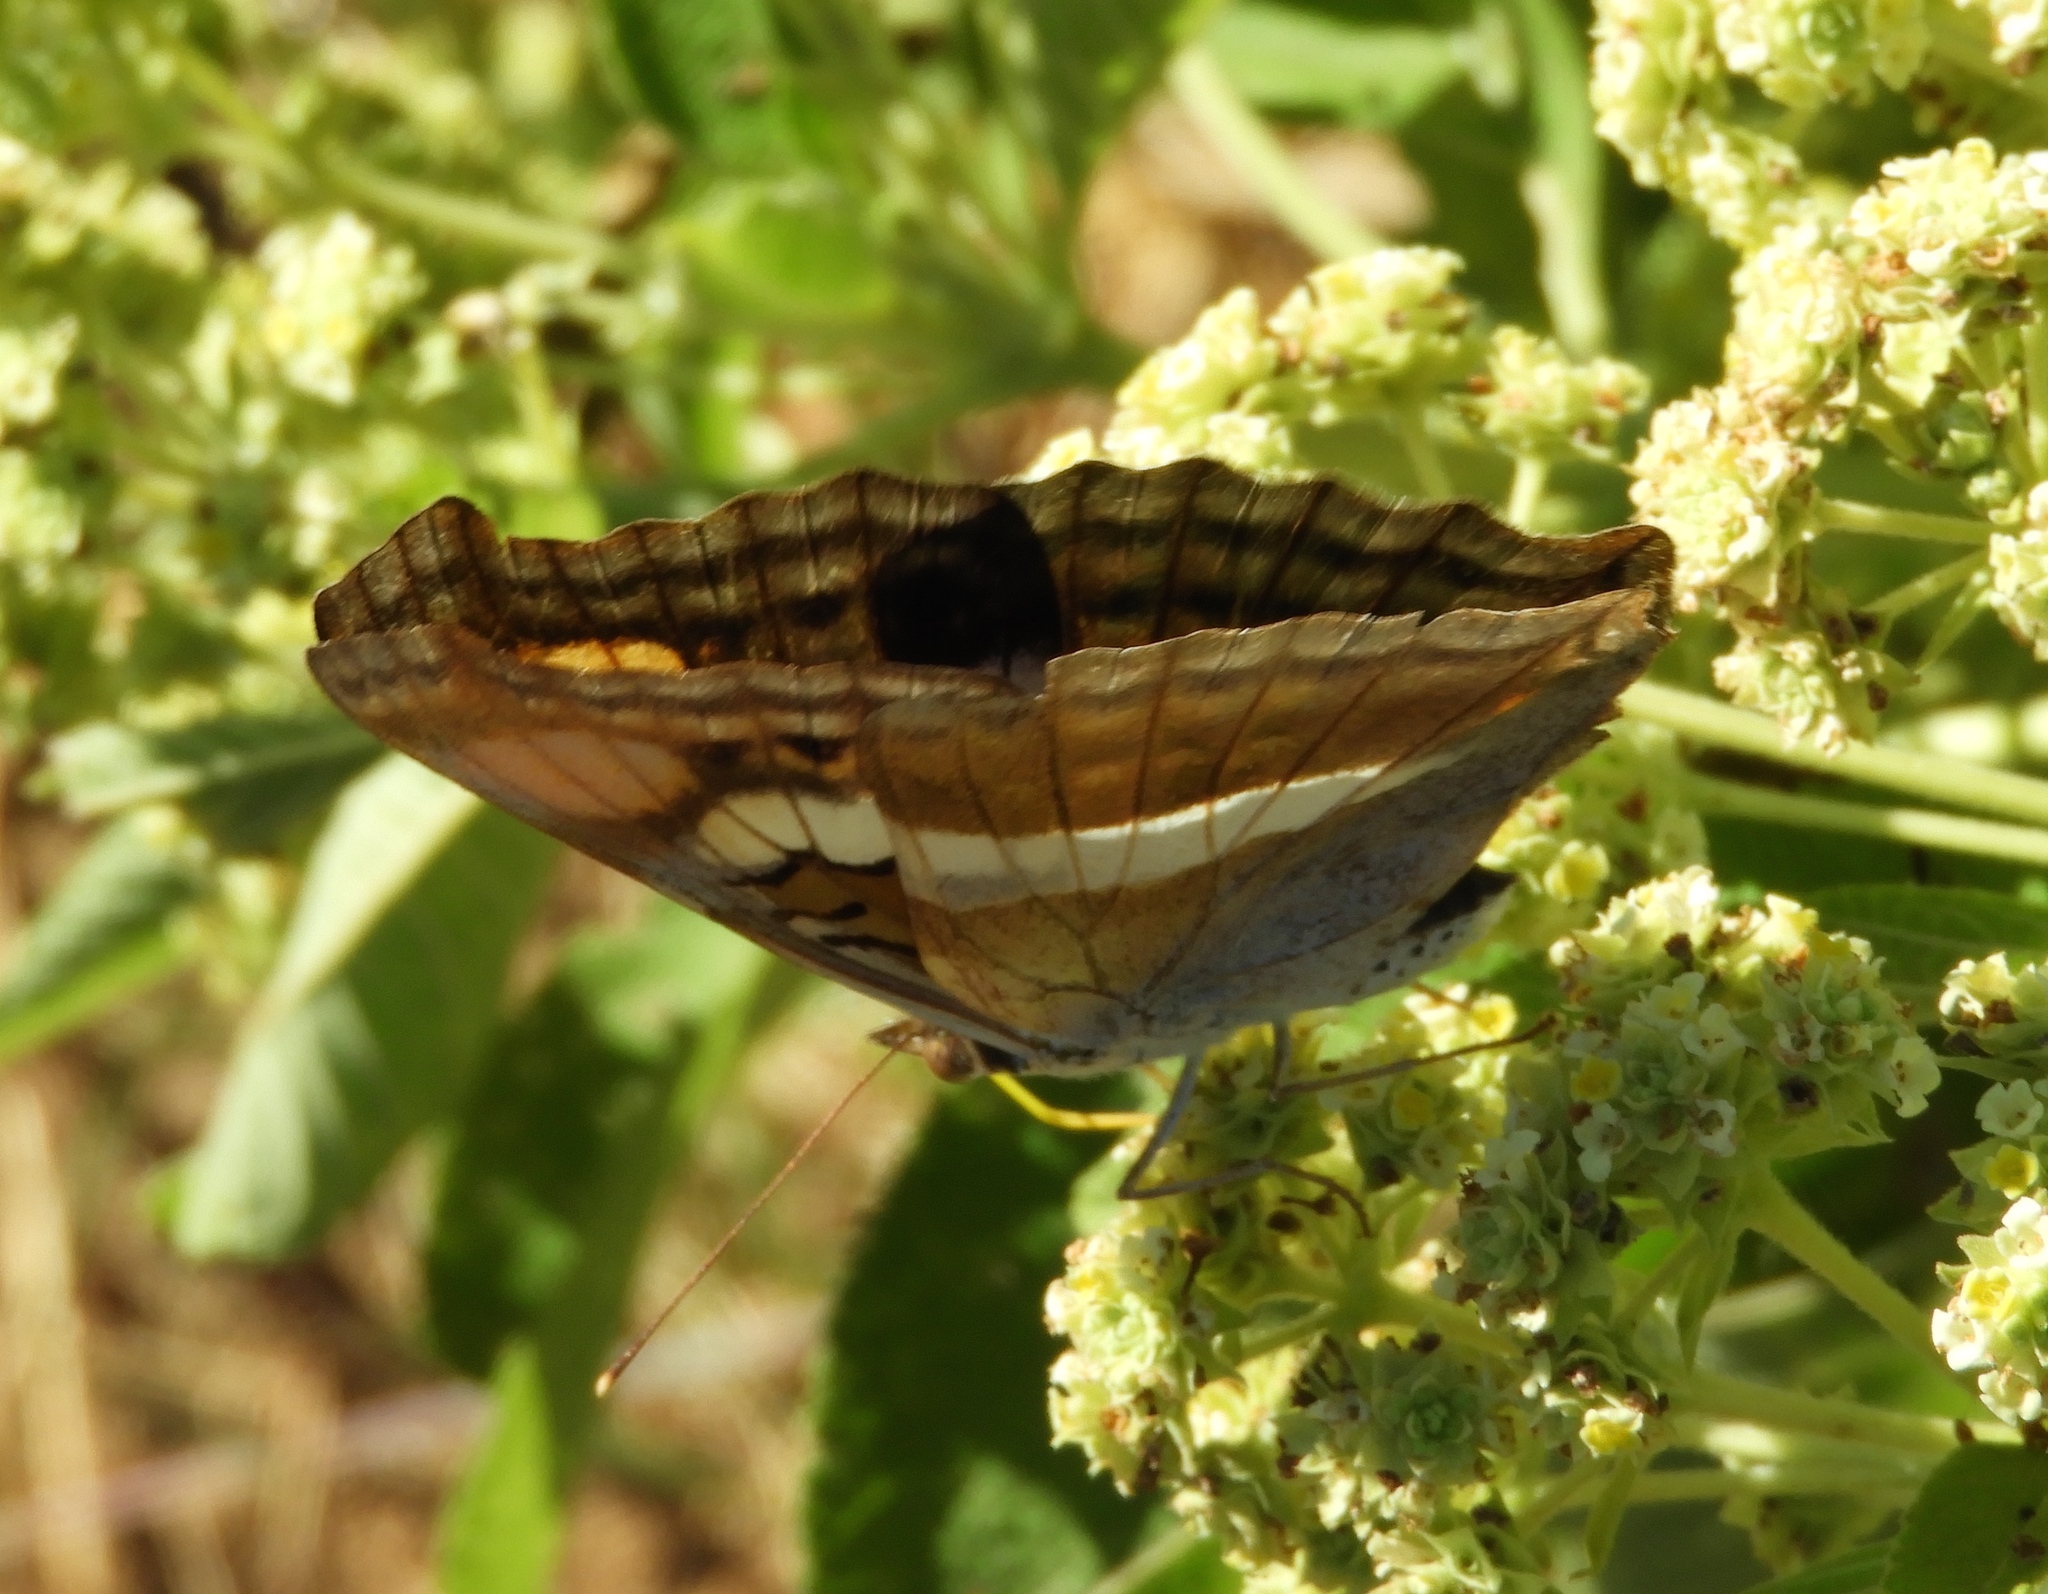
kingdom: Animalia
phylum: Arthropoda
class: Insecta
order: Lepidoptera
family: Nymphalidae
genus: Doxocopa
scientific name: Doxocopa laure
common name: Silver emperor
